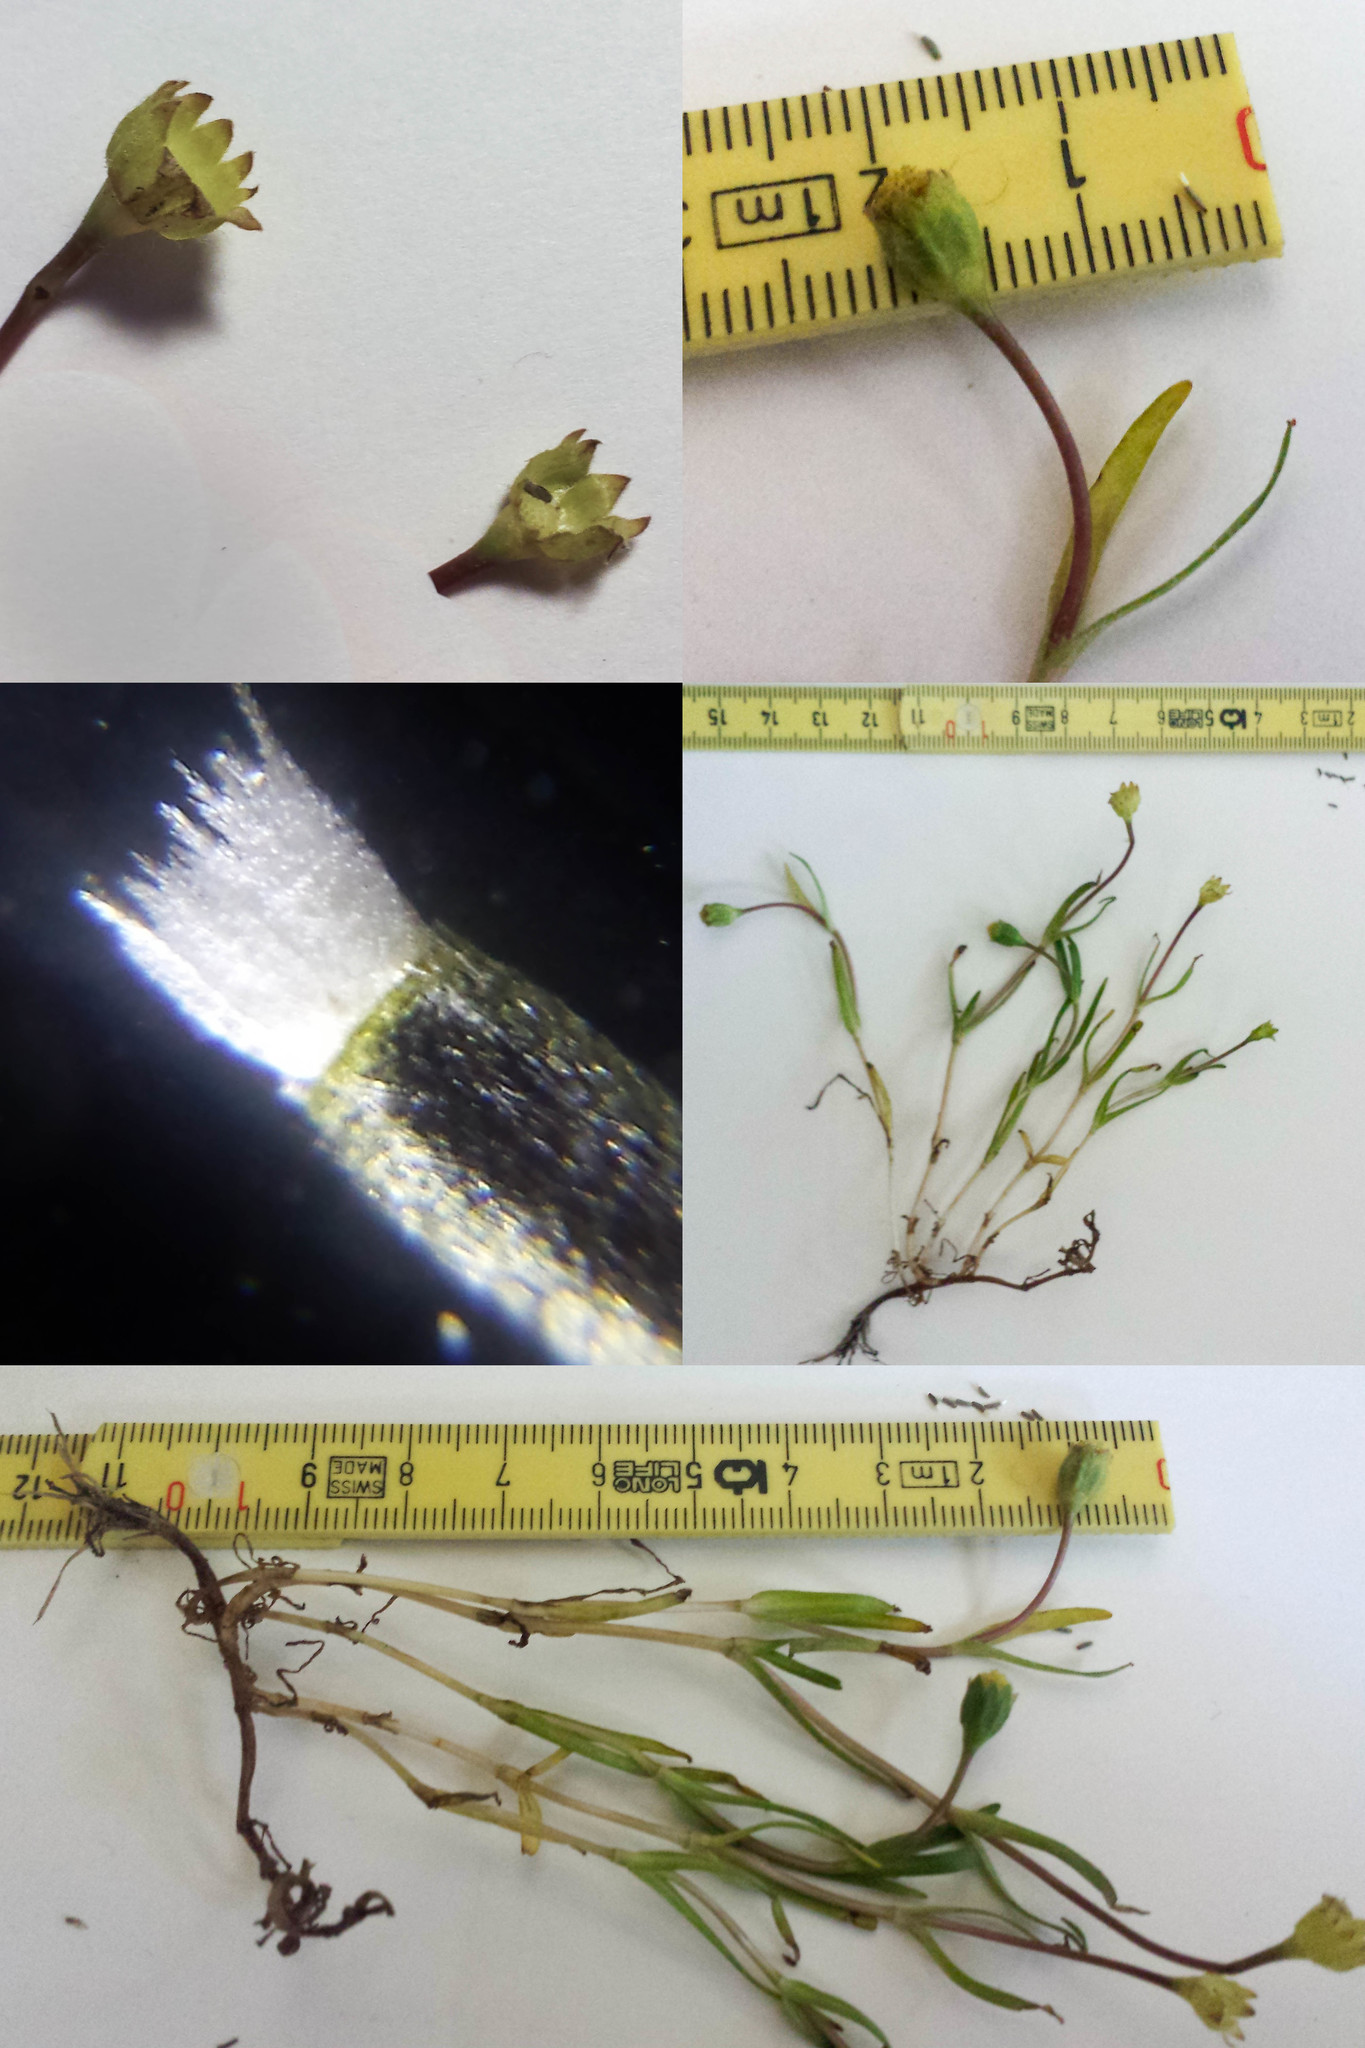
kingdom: Plantae
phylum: Tracheophyta
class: Magnoliopsida
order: Asterales
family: Asteraceae
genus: Lasthenia
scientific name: Lasthenia glaberrima
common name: Smooth goldfields
